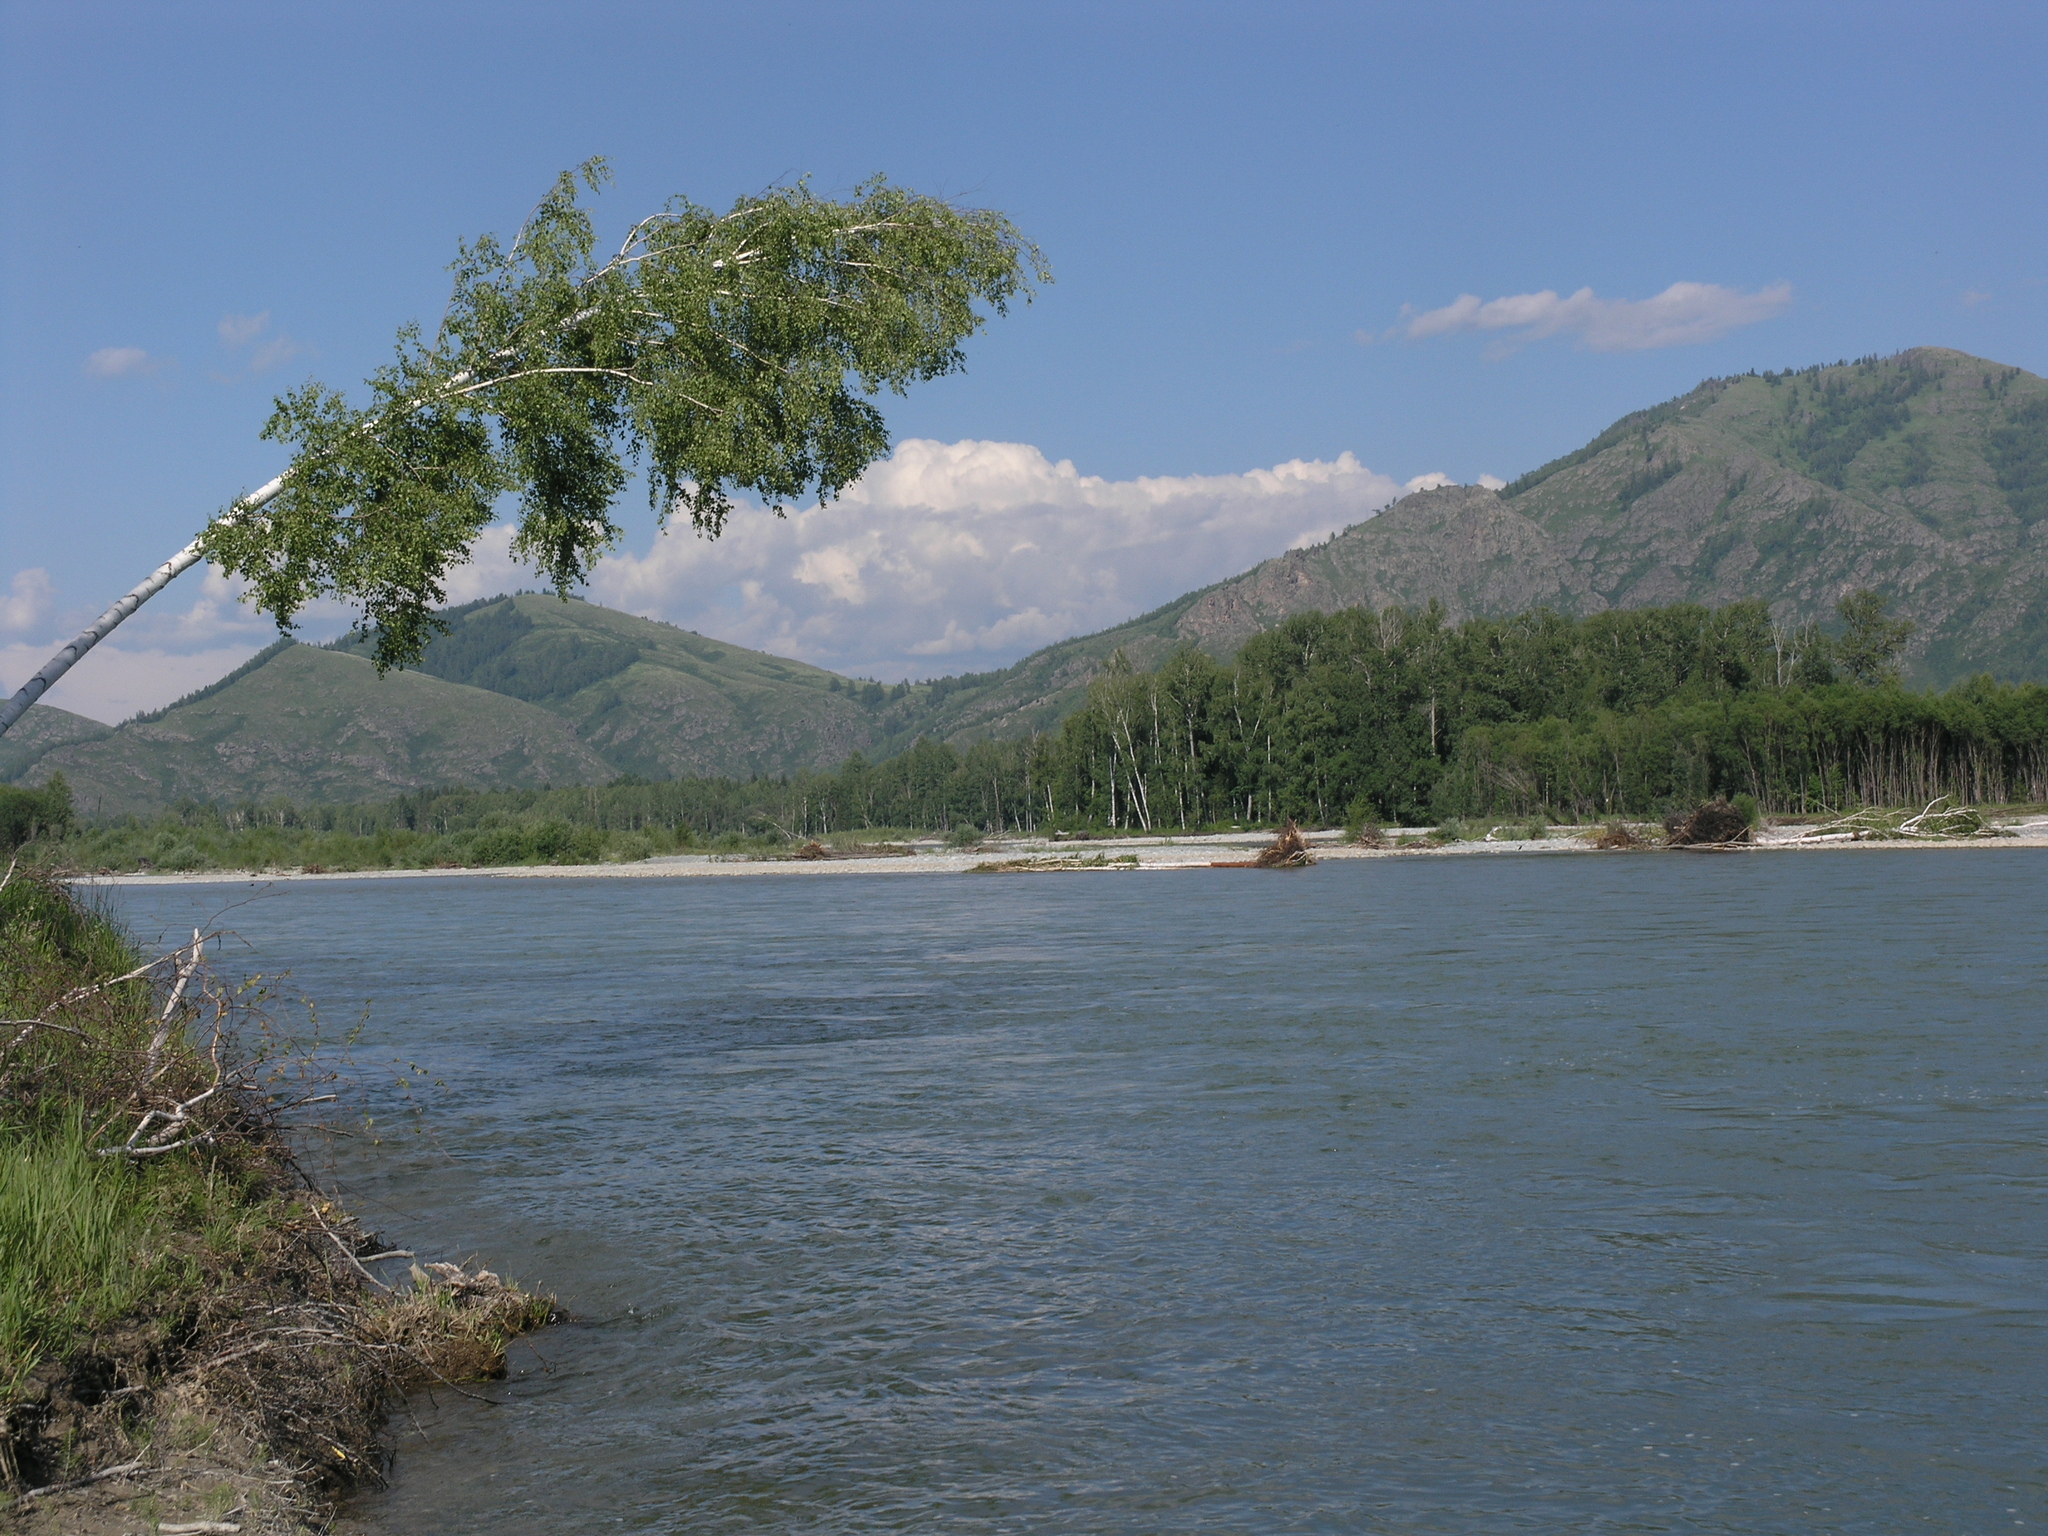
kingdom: Plantae
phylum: Tracheophyta
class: Magnoliopsida
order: Fagales
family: Betulaceae
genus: Betula
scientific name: Betula pendula
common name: Silver birch
